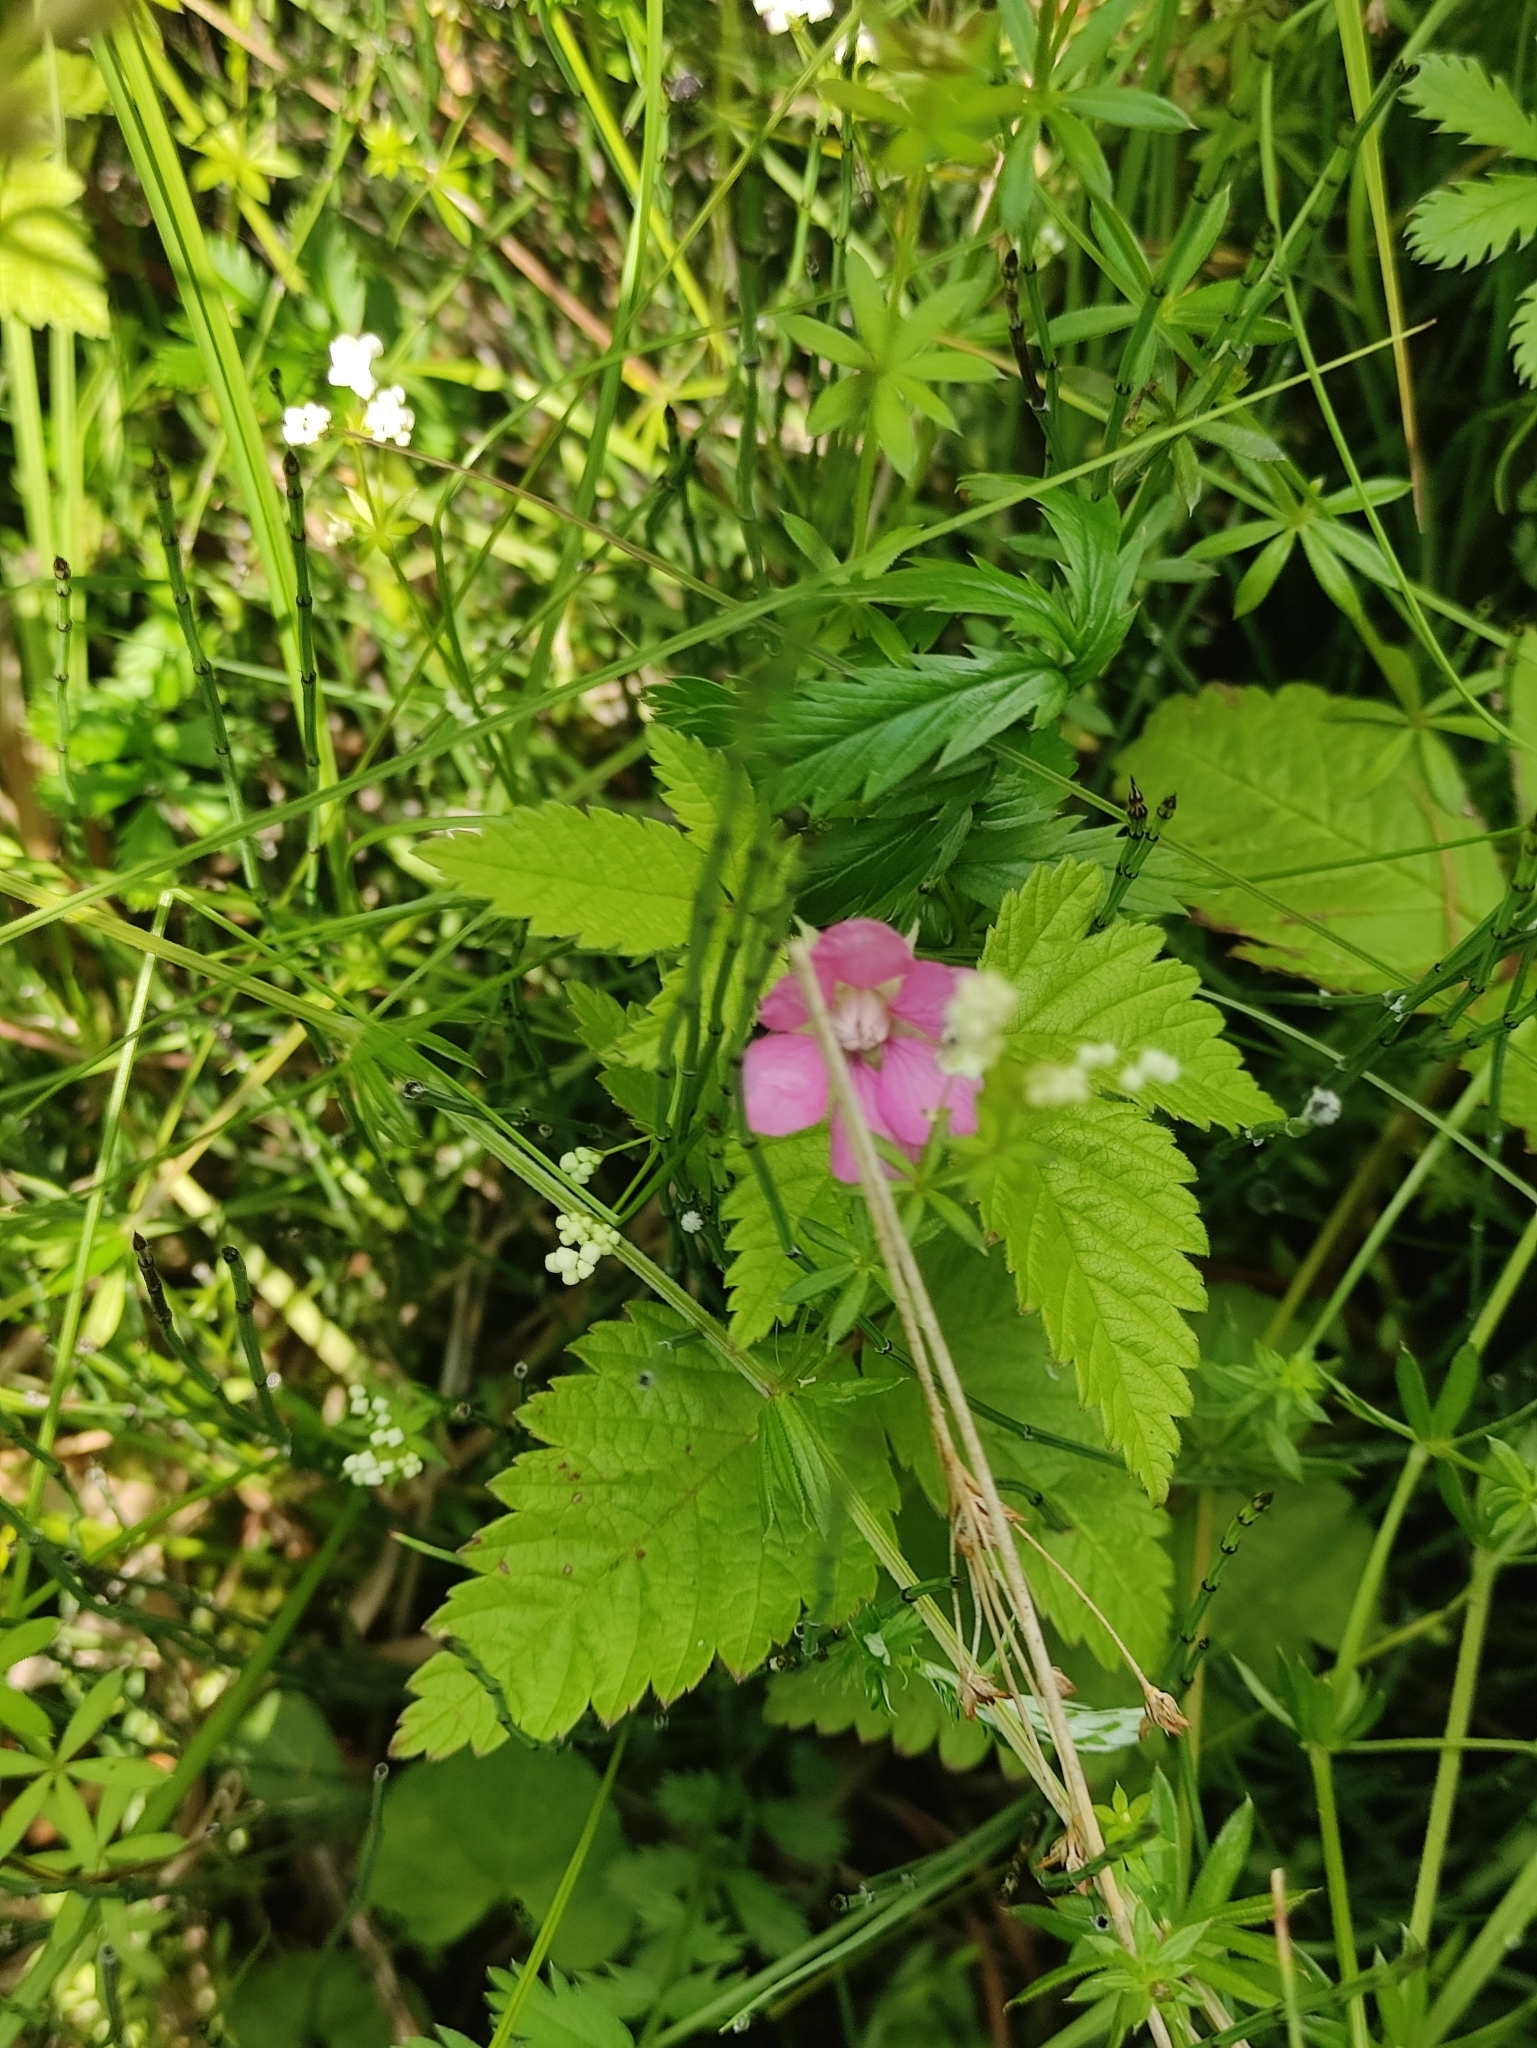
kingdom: Plantae
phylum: Tracheophyta
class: Magnoliopsida
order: Rosales
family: Rosaceae
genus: Rubus
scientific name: Rubus arcticus
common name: Arctic bramble
